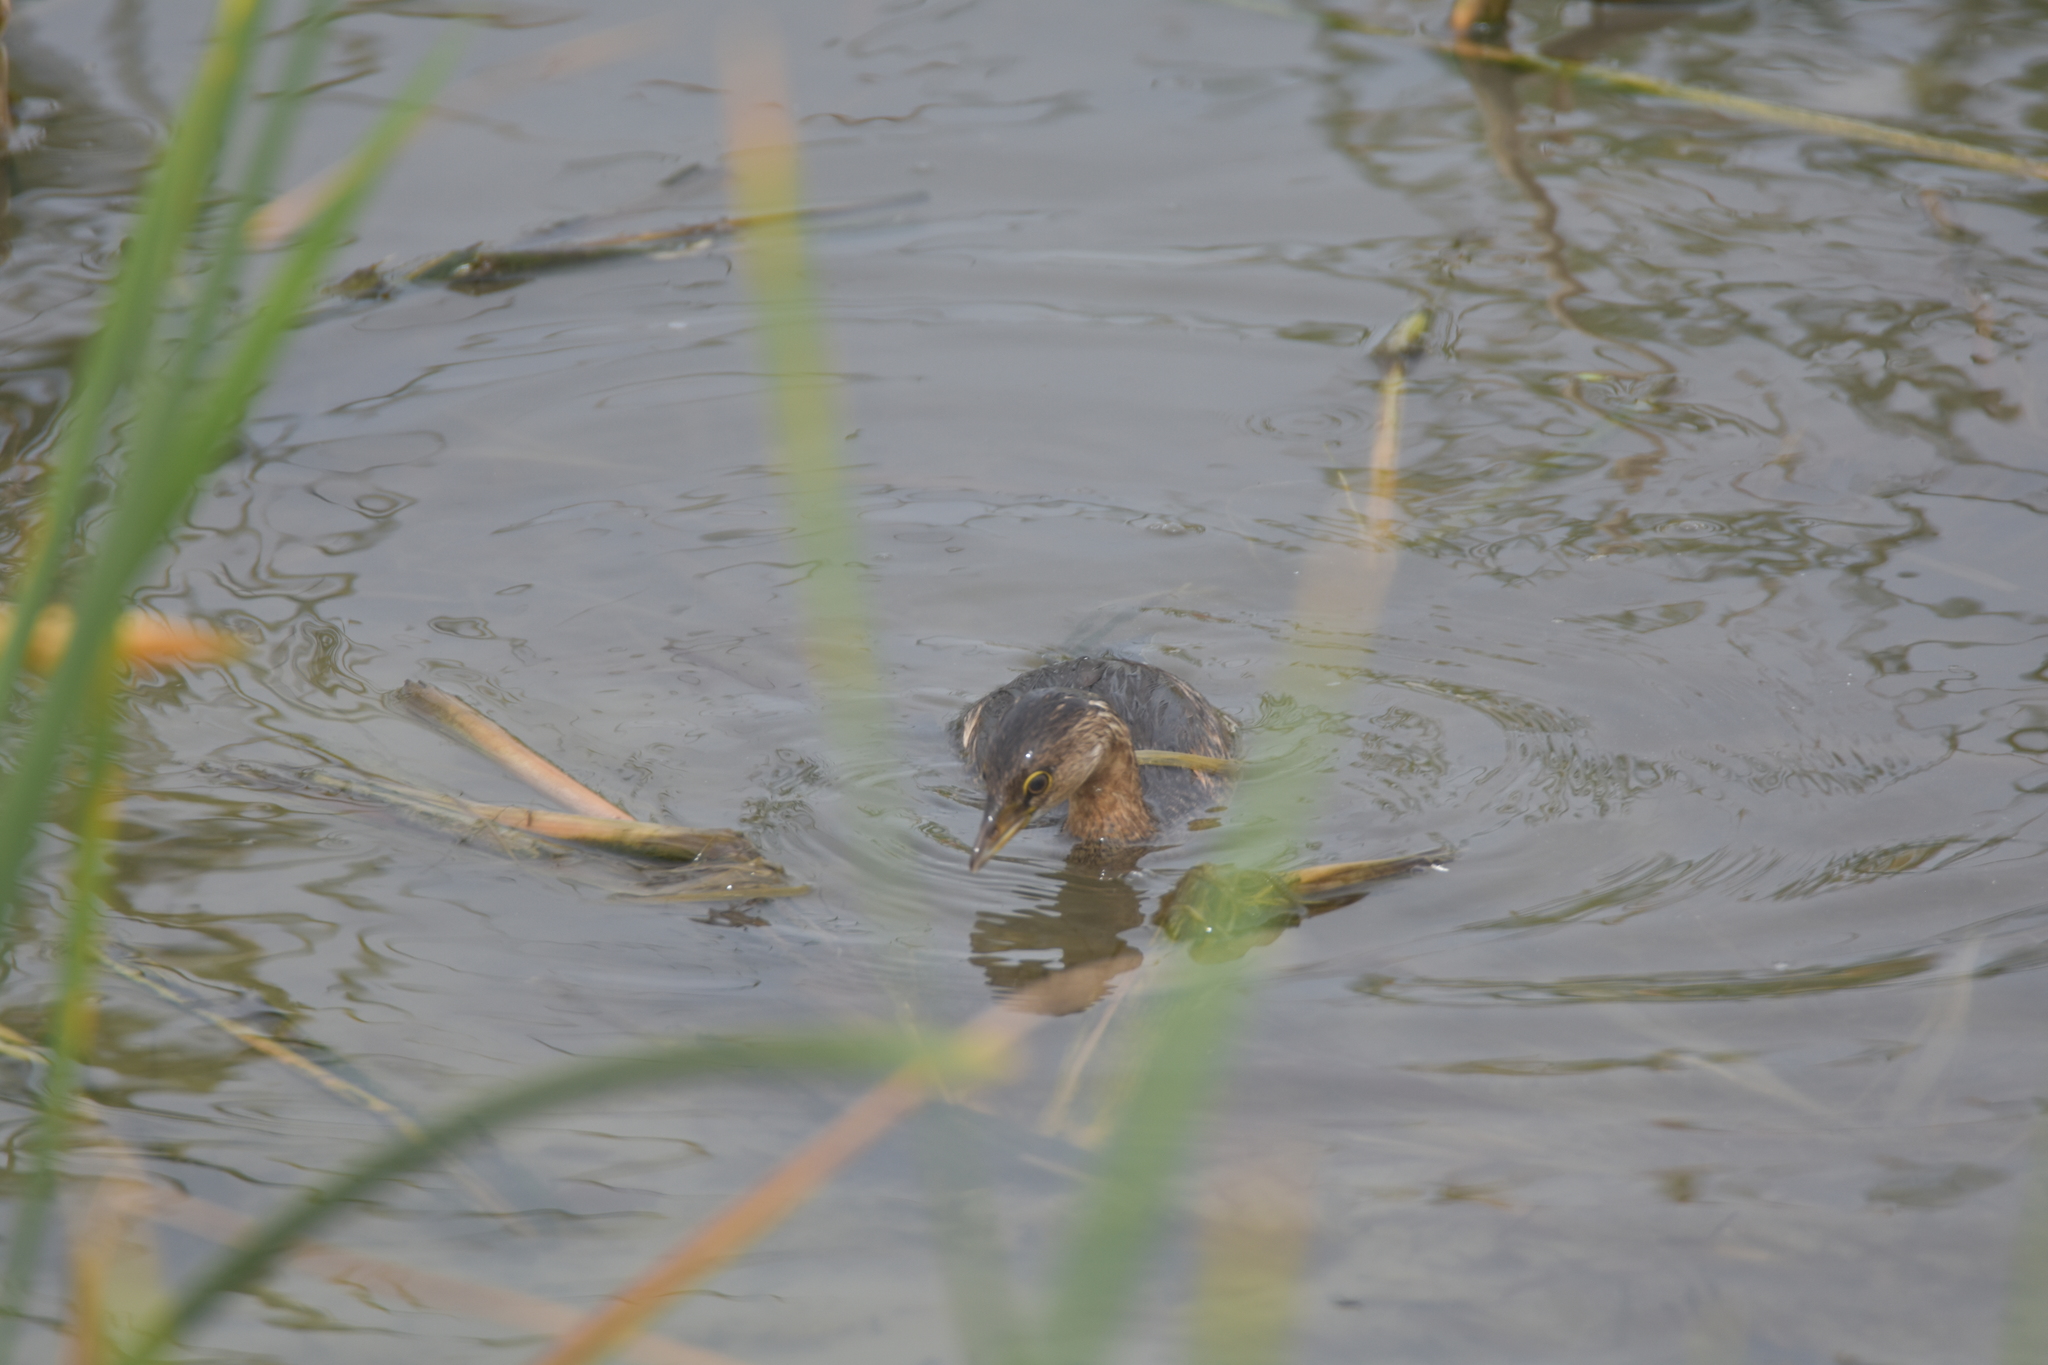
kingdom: Animalia
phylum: Chordata
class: Aves
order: Podicipediformes
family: Podicipedidae
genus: Podilymbus
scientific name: Podilymbus podiceps
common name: Pied-billed grebe
